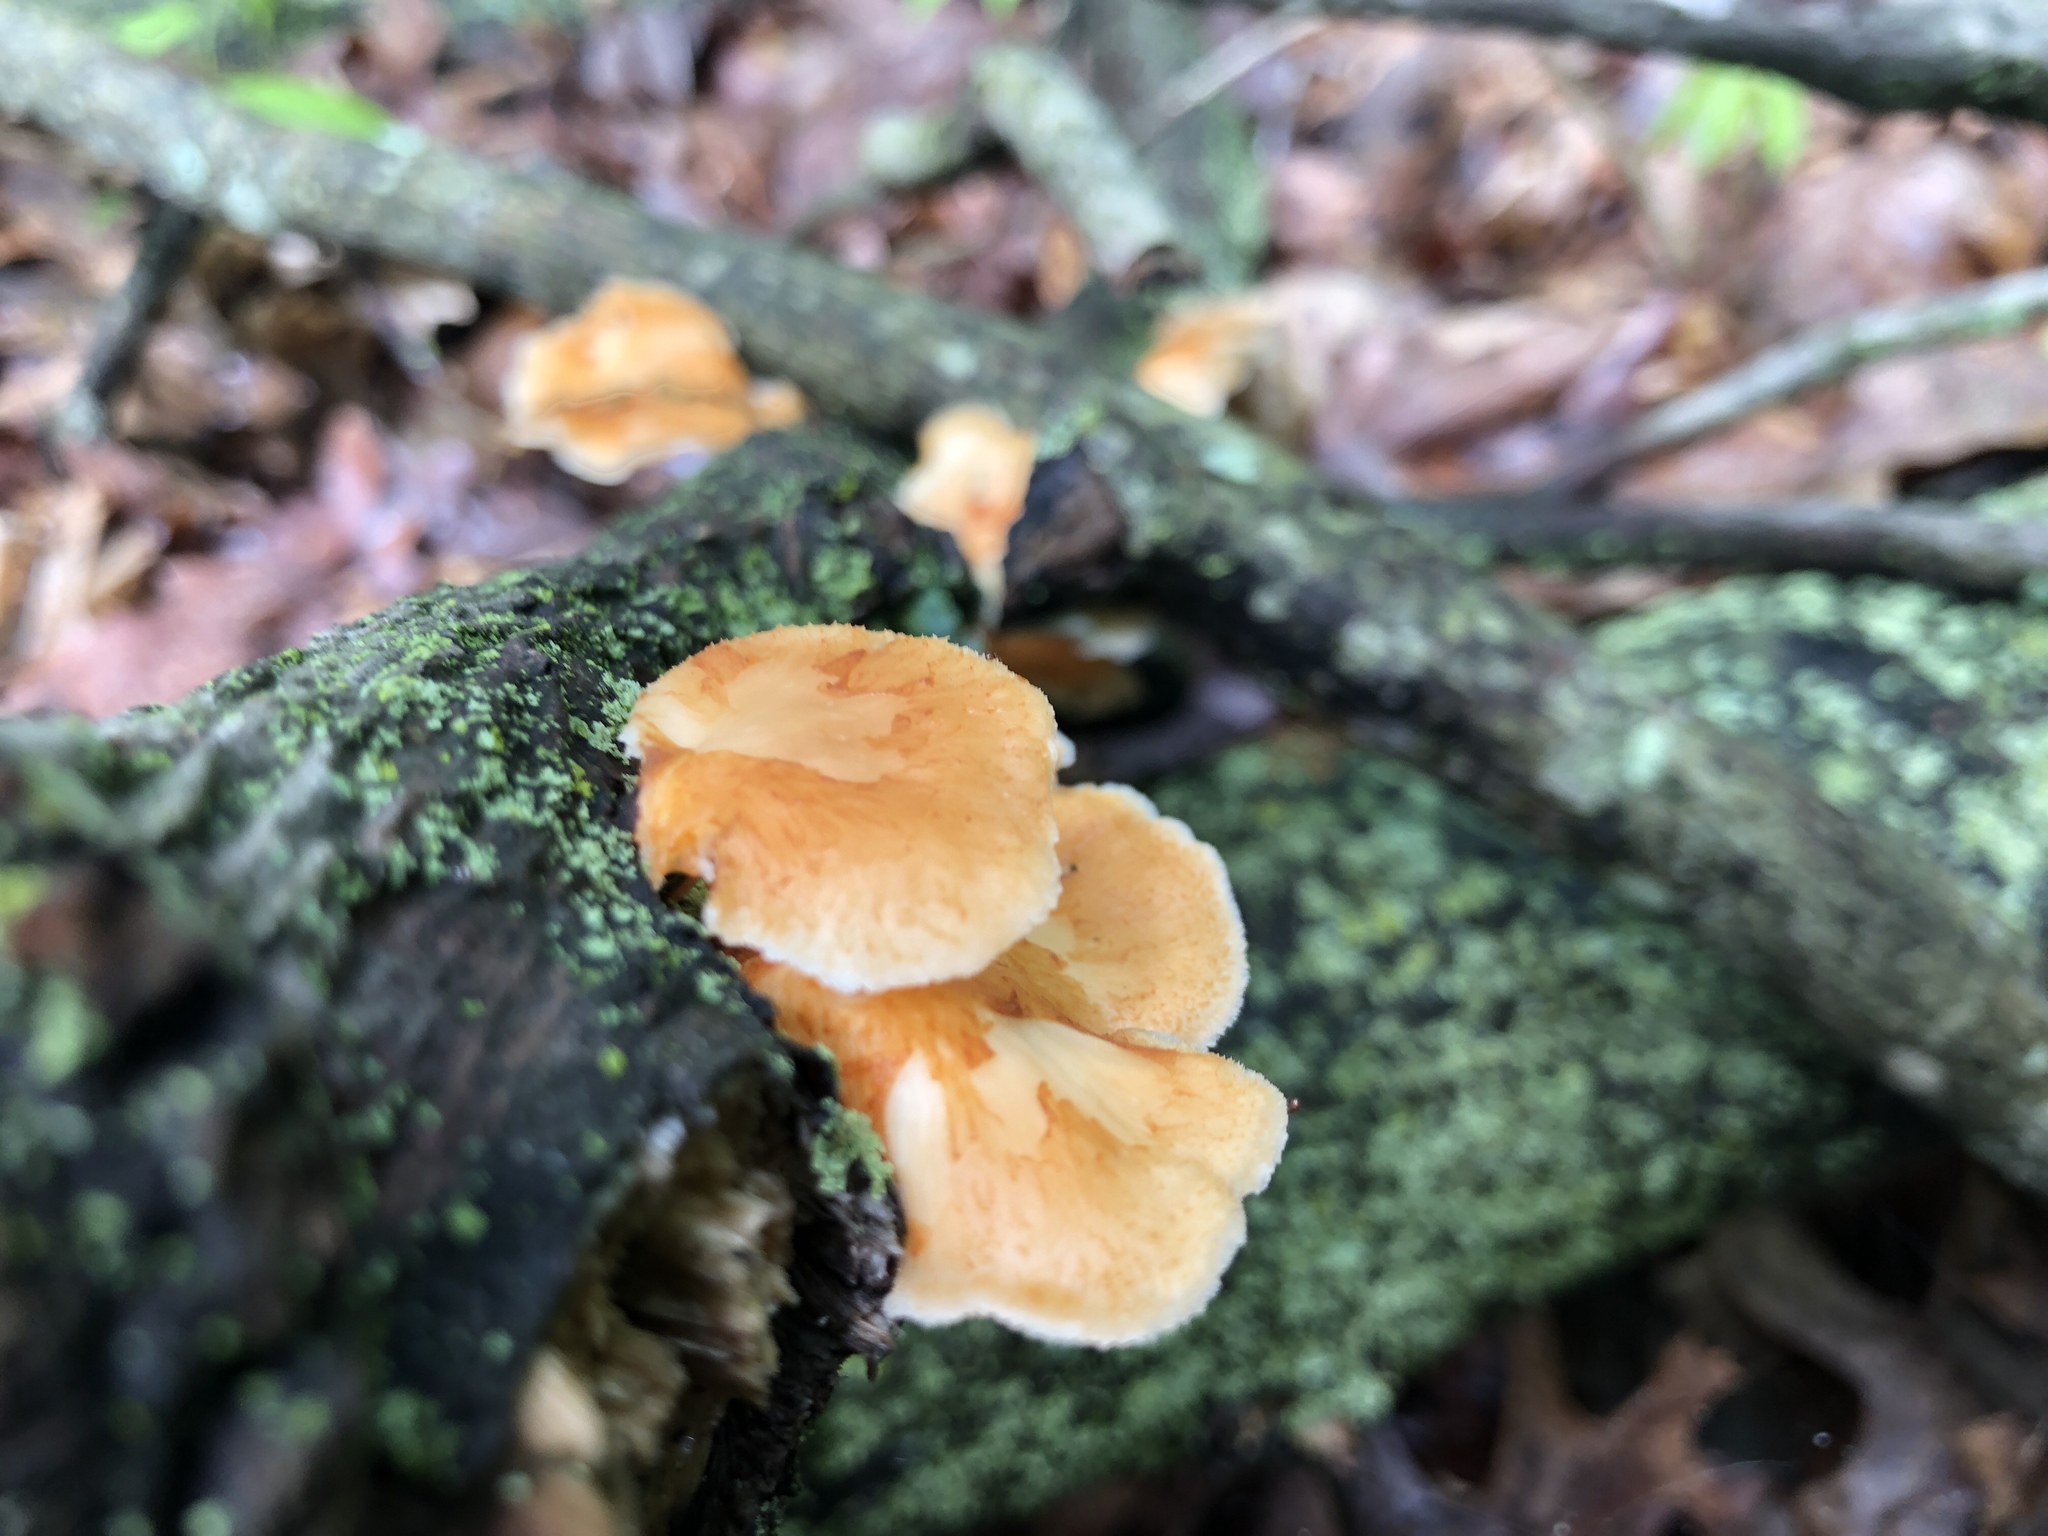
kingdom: Fungi
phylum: Basidiomycota
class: Agaricomycetes
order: Polyporales
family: Polyporaceae
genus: Neofavolus
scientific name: Neofavolus alveolaris
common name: Hexagonal-pored polypore
